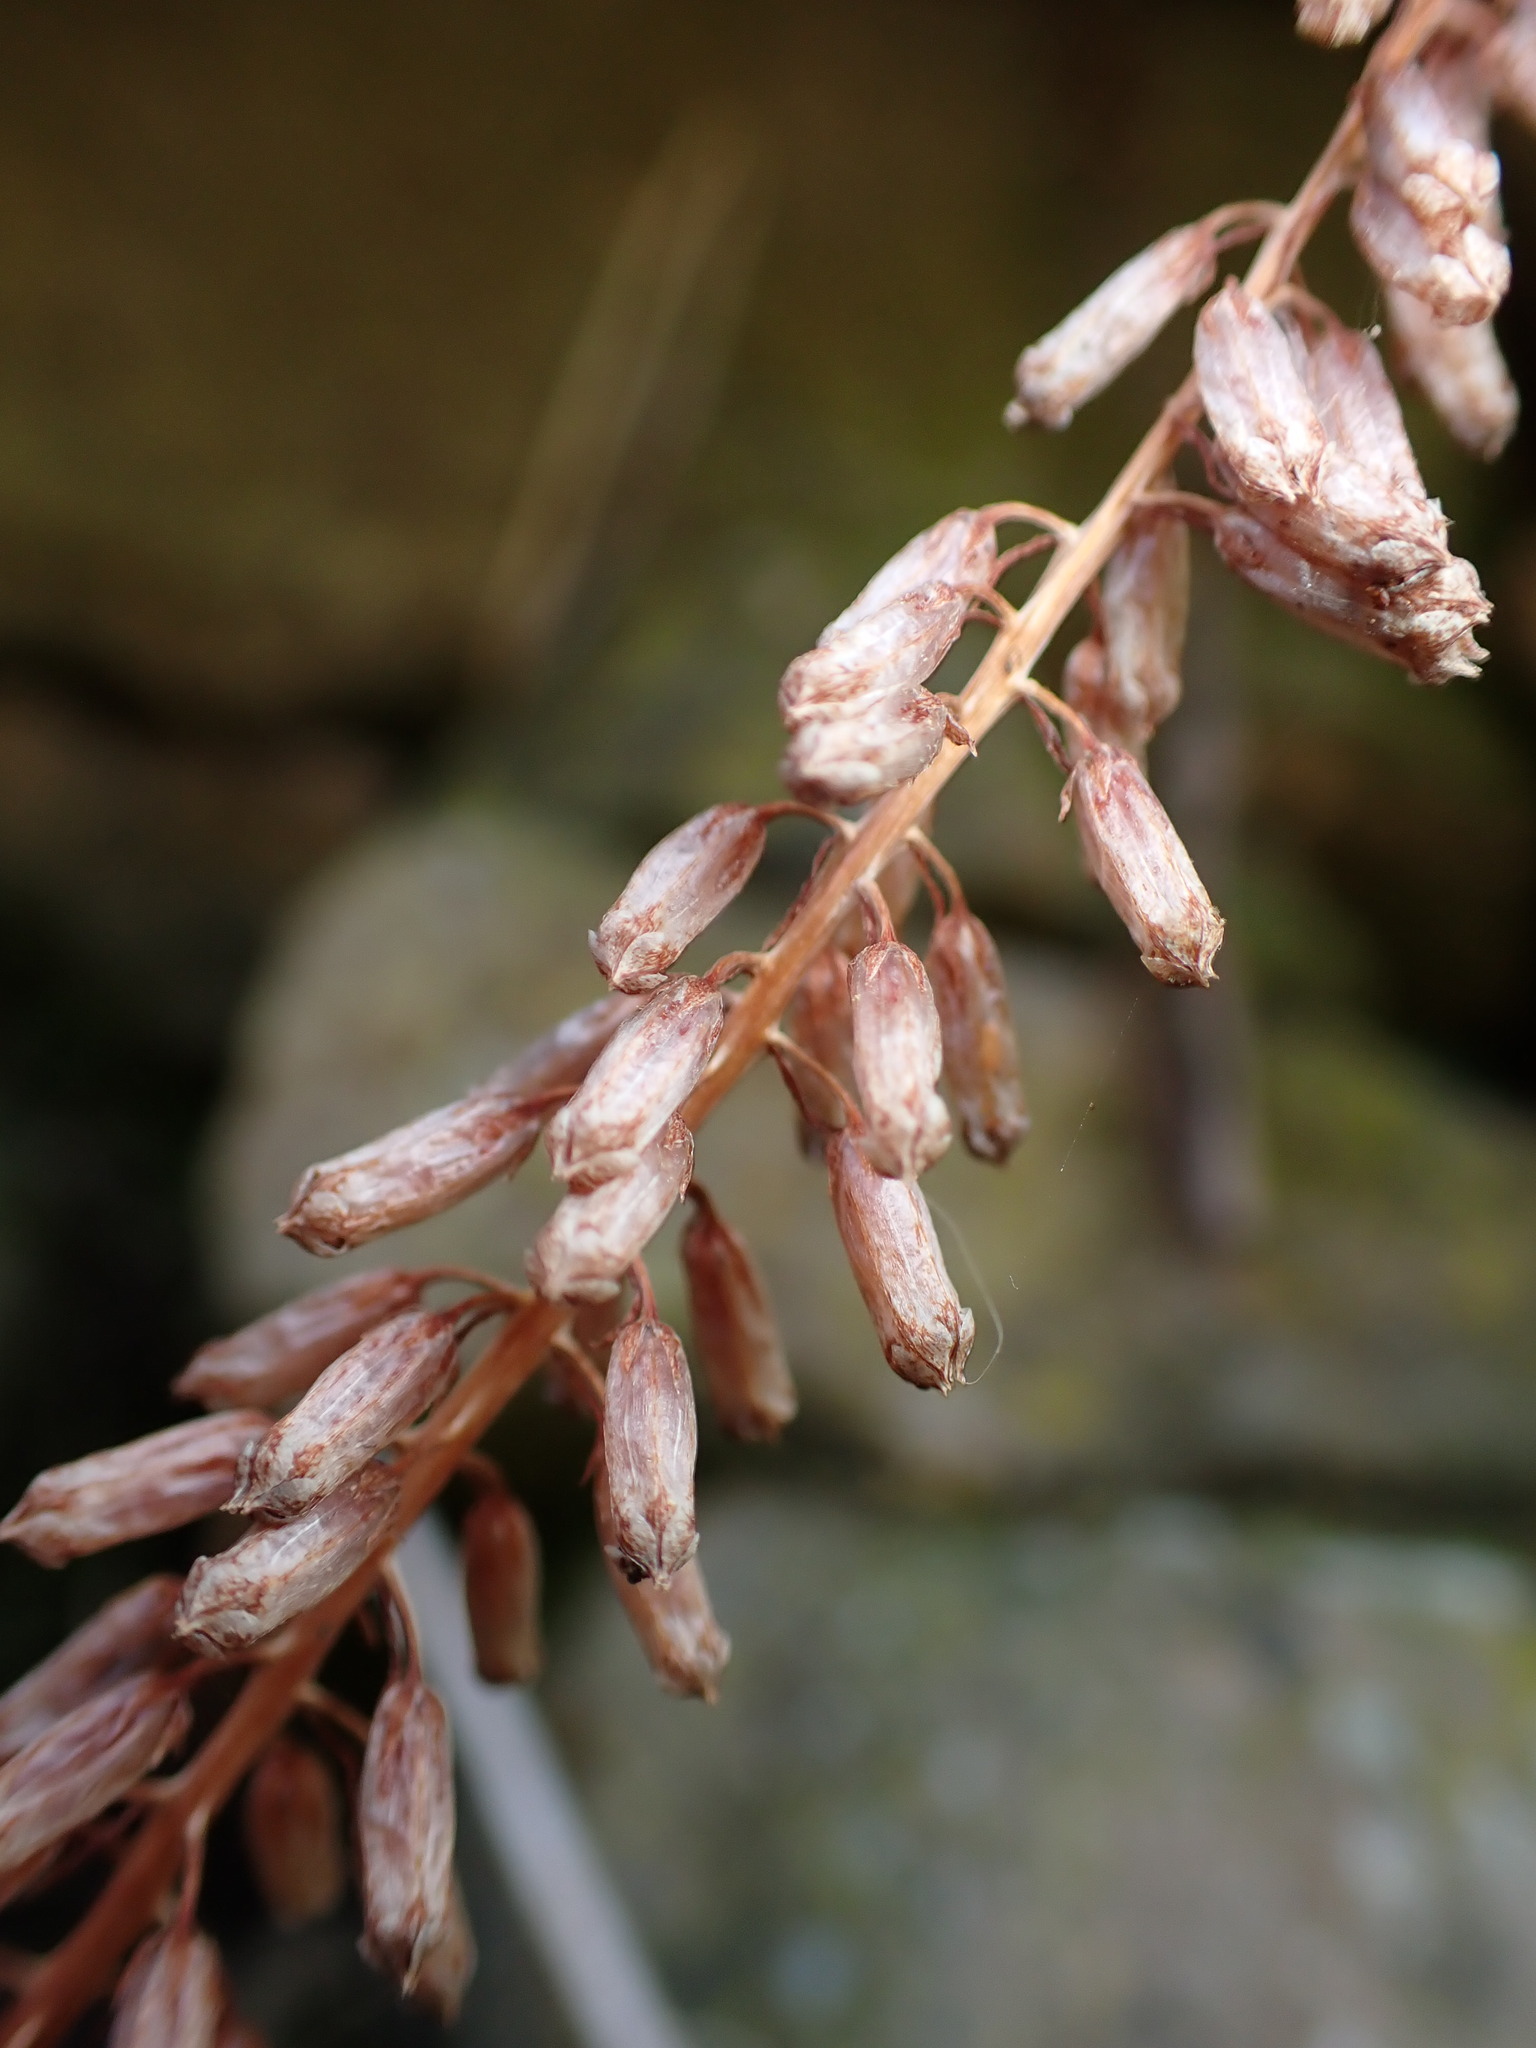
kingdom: Plantae
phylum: Tracheophyta
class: Magnoliopsida
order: Saxifragales
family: Crassulaceae
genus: Umbilicus
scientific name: Umbilicus rupestris
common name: Navelwort
